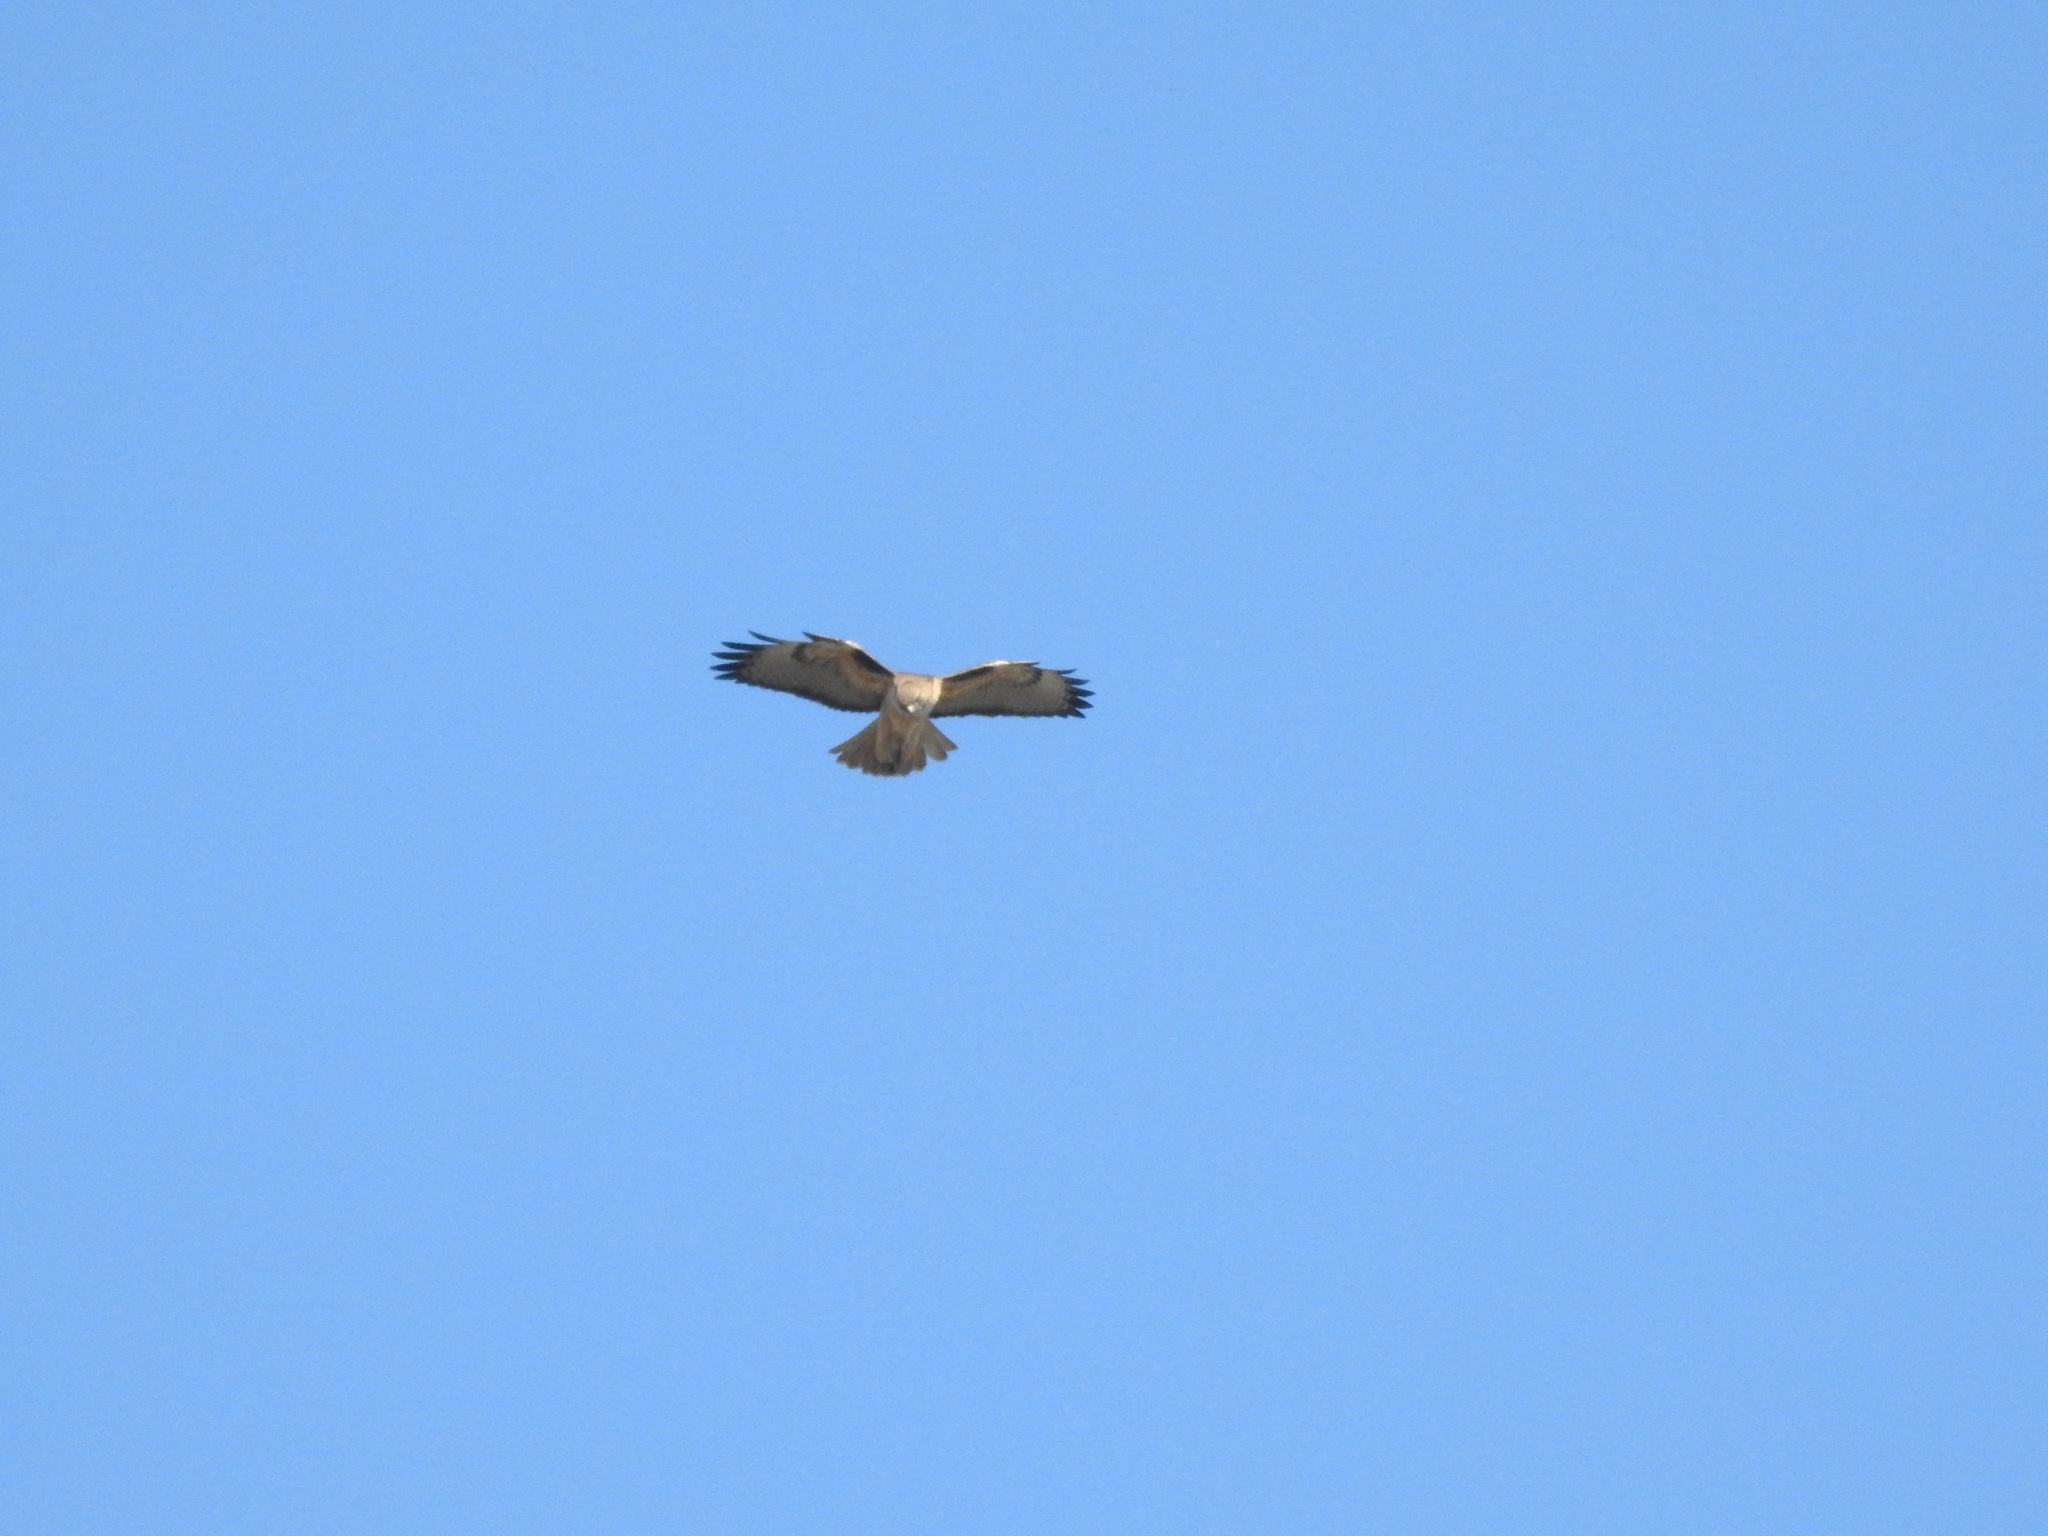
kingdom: Animalia
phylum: Chordata
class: Aves
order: Accipitriformes
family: Accipitridae
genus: Buteo
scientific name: Buteo jamaicensis
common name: Red-tailed hawk
